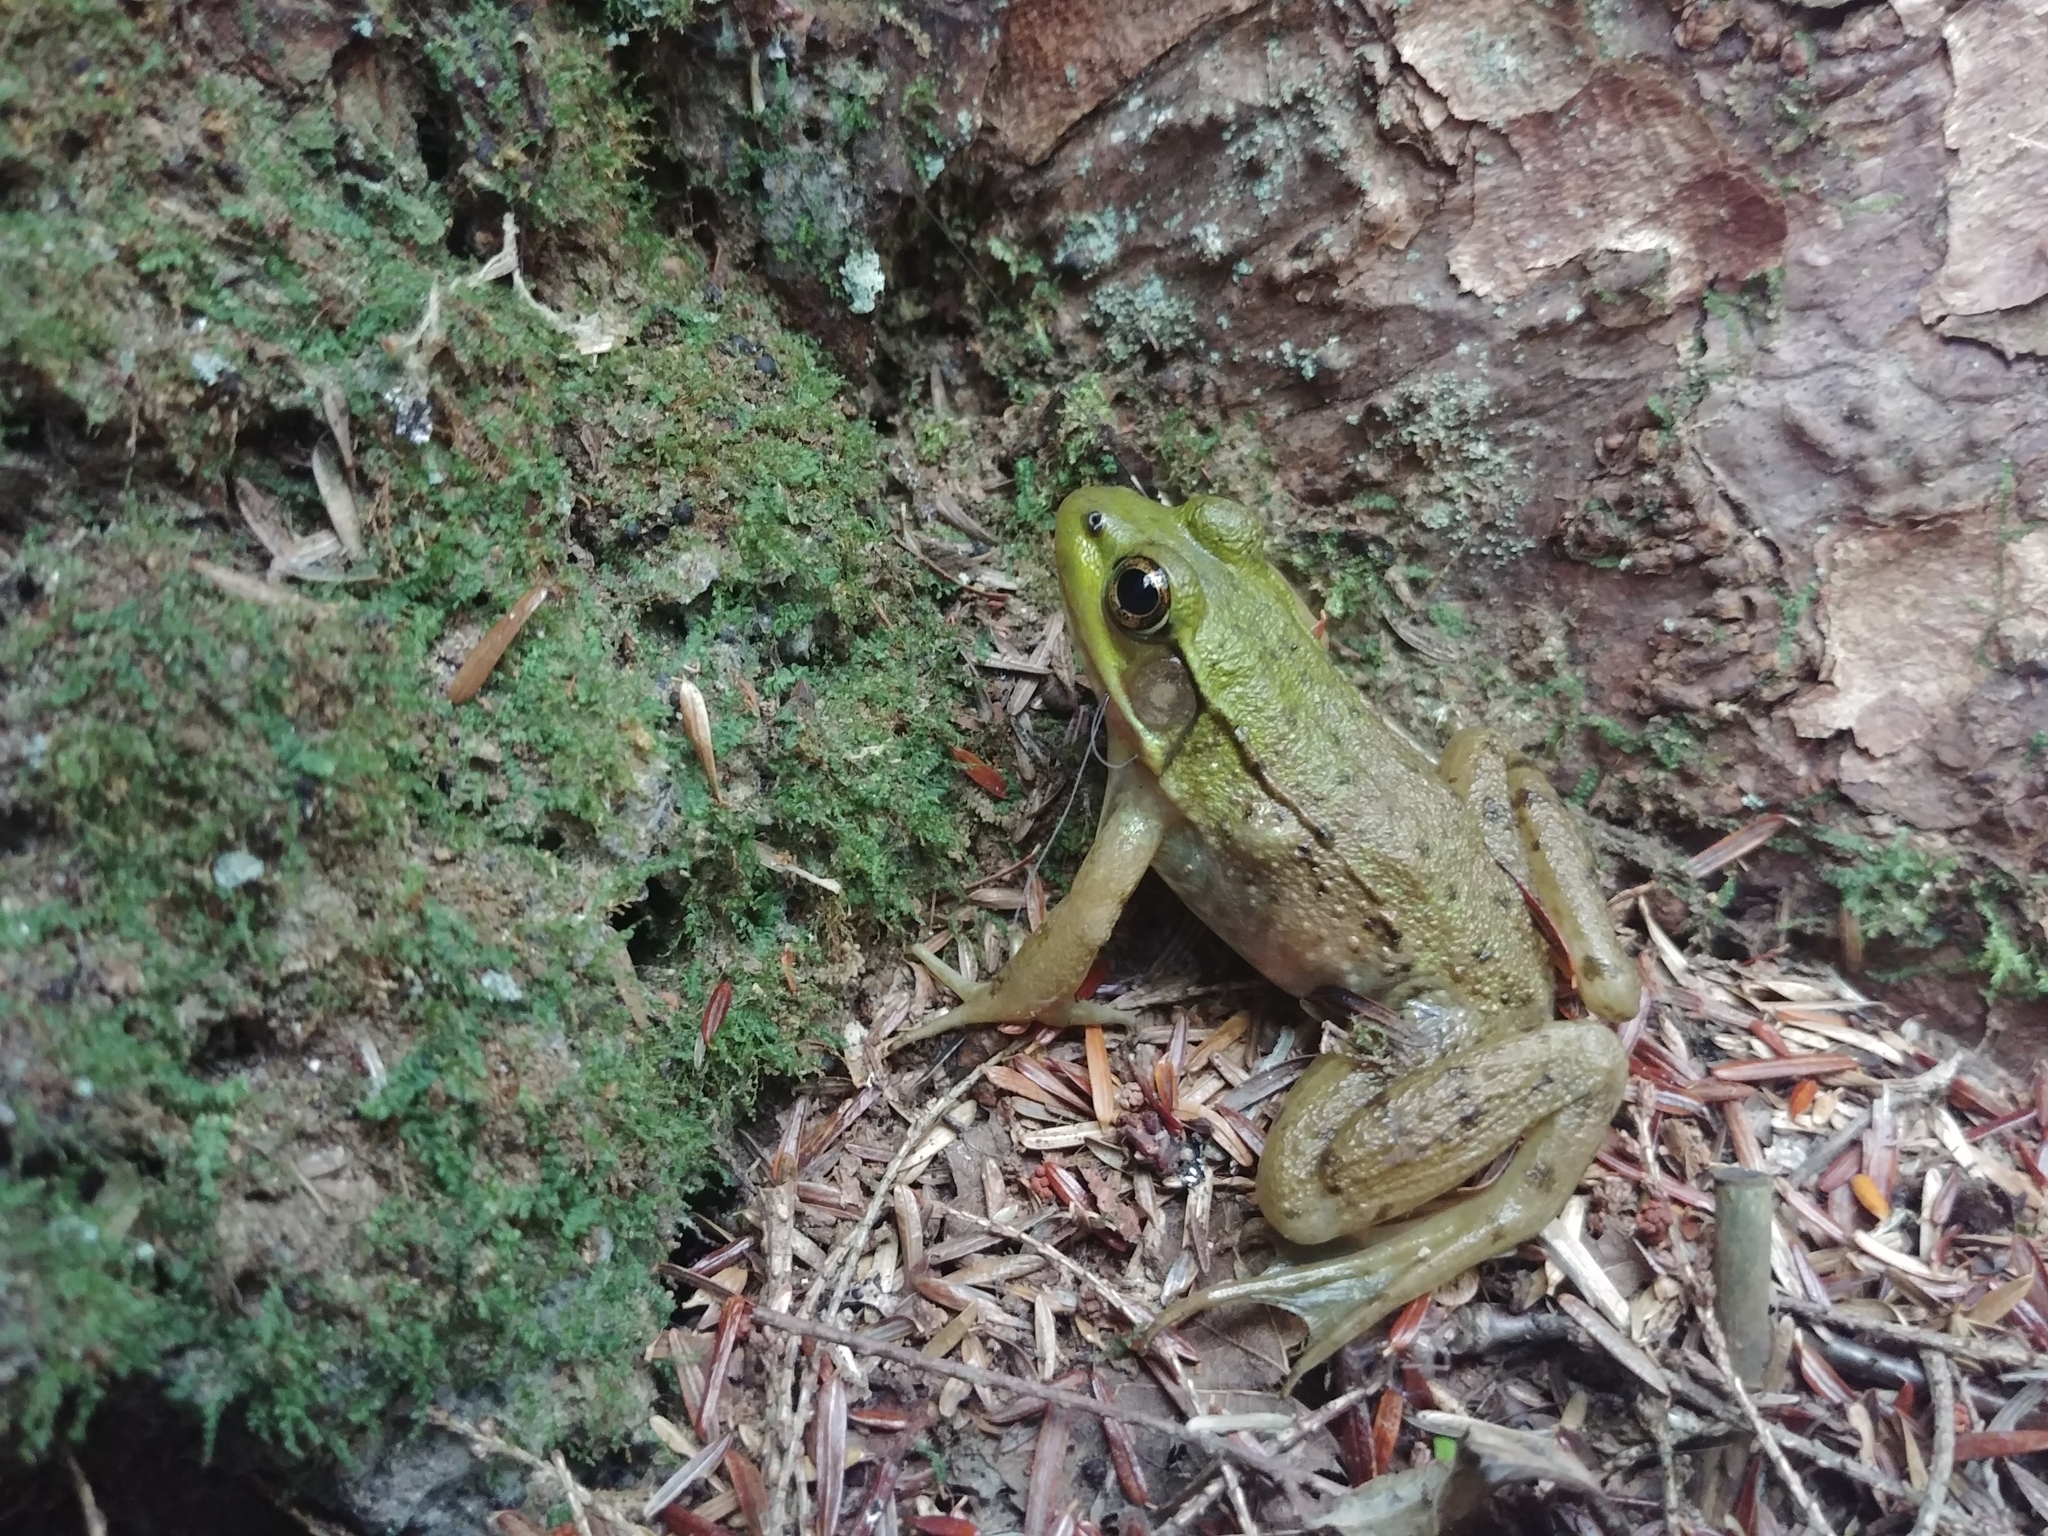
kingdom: Animalia
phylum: Chordata
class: Amphibia
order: Anura
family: Ranidae
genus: Lithobates
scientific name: Lithobates clamitans
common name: Green frog
